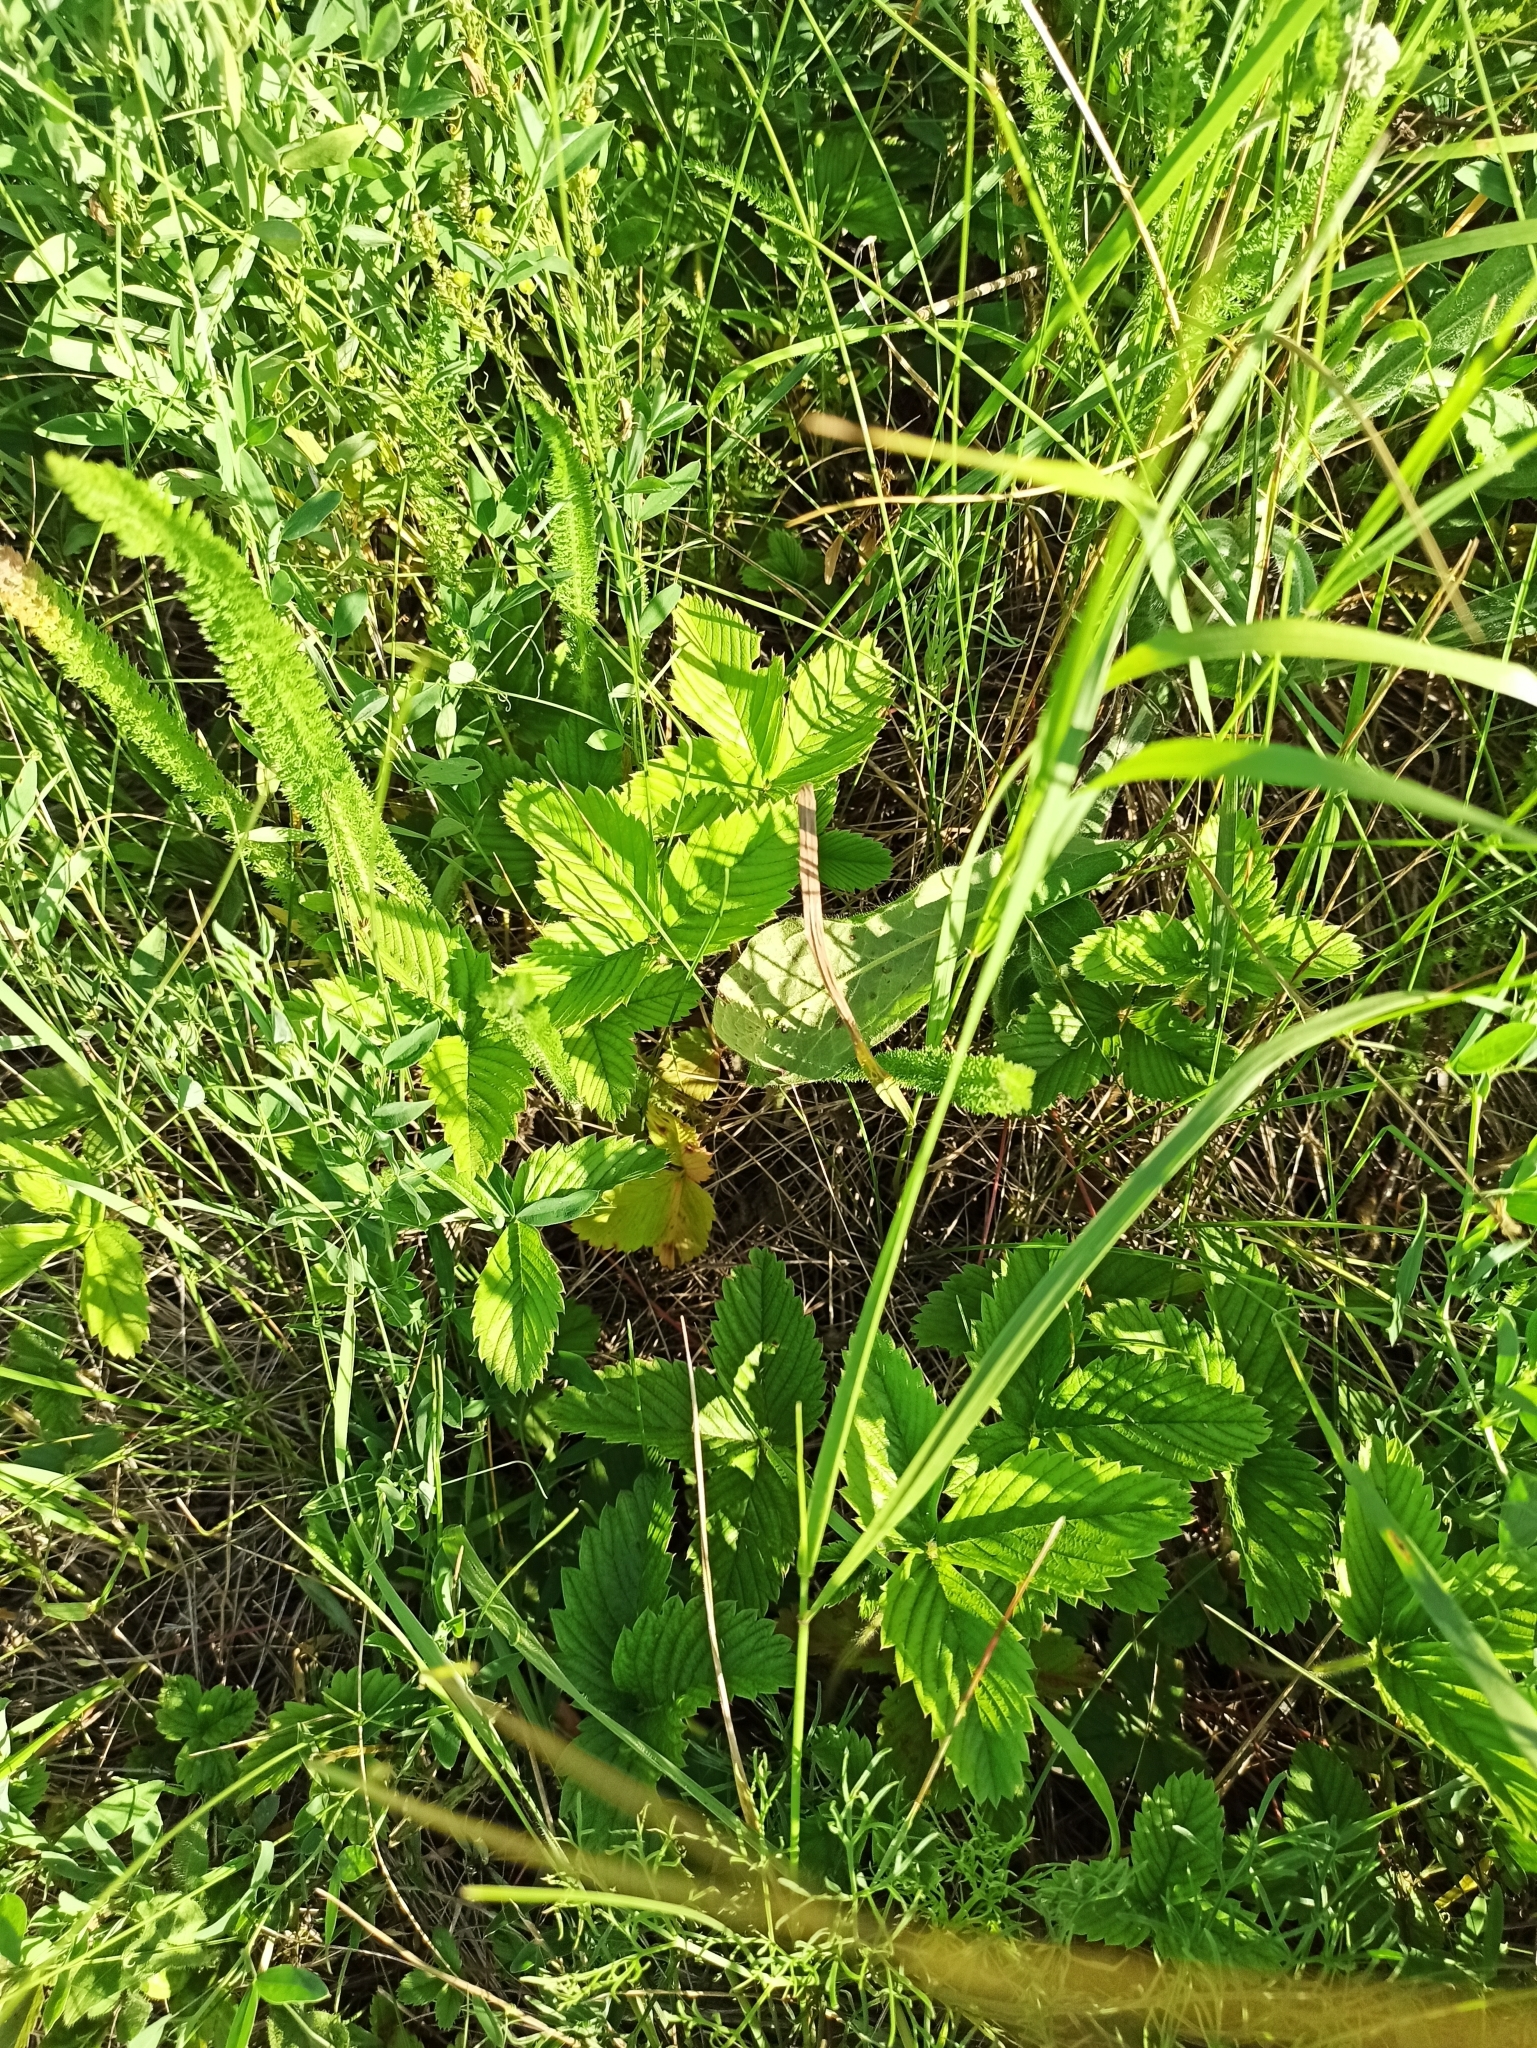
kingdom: Plantae
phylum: Tracheophyta
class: Magnoliopsida
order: Rosales
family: Rosaceae
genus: Fragaria
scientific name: Fragaria viridis
